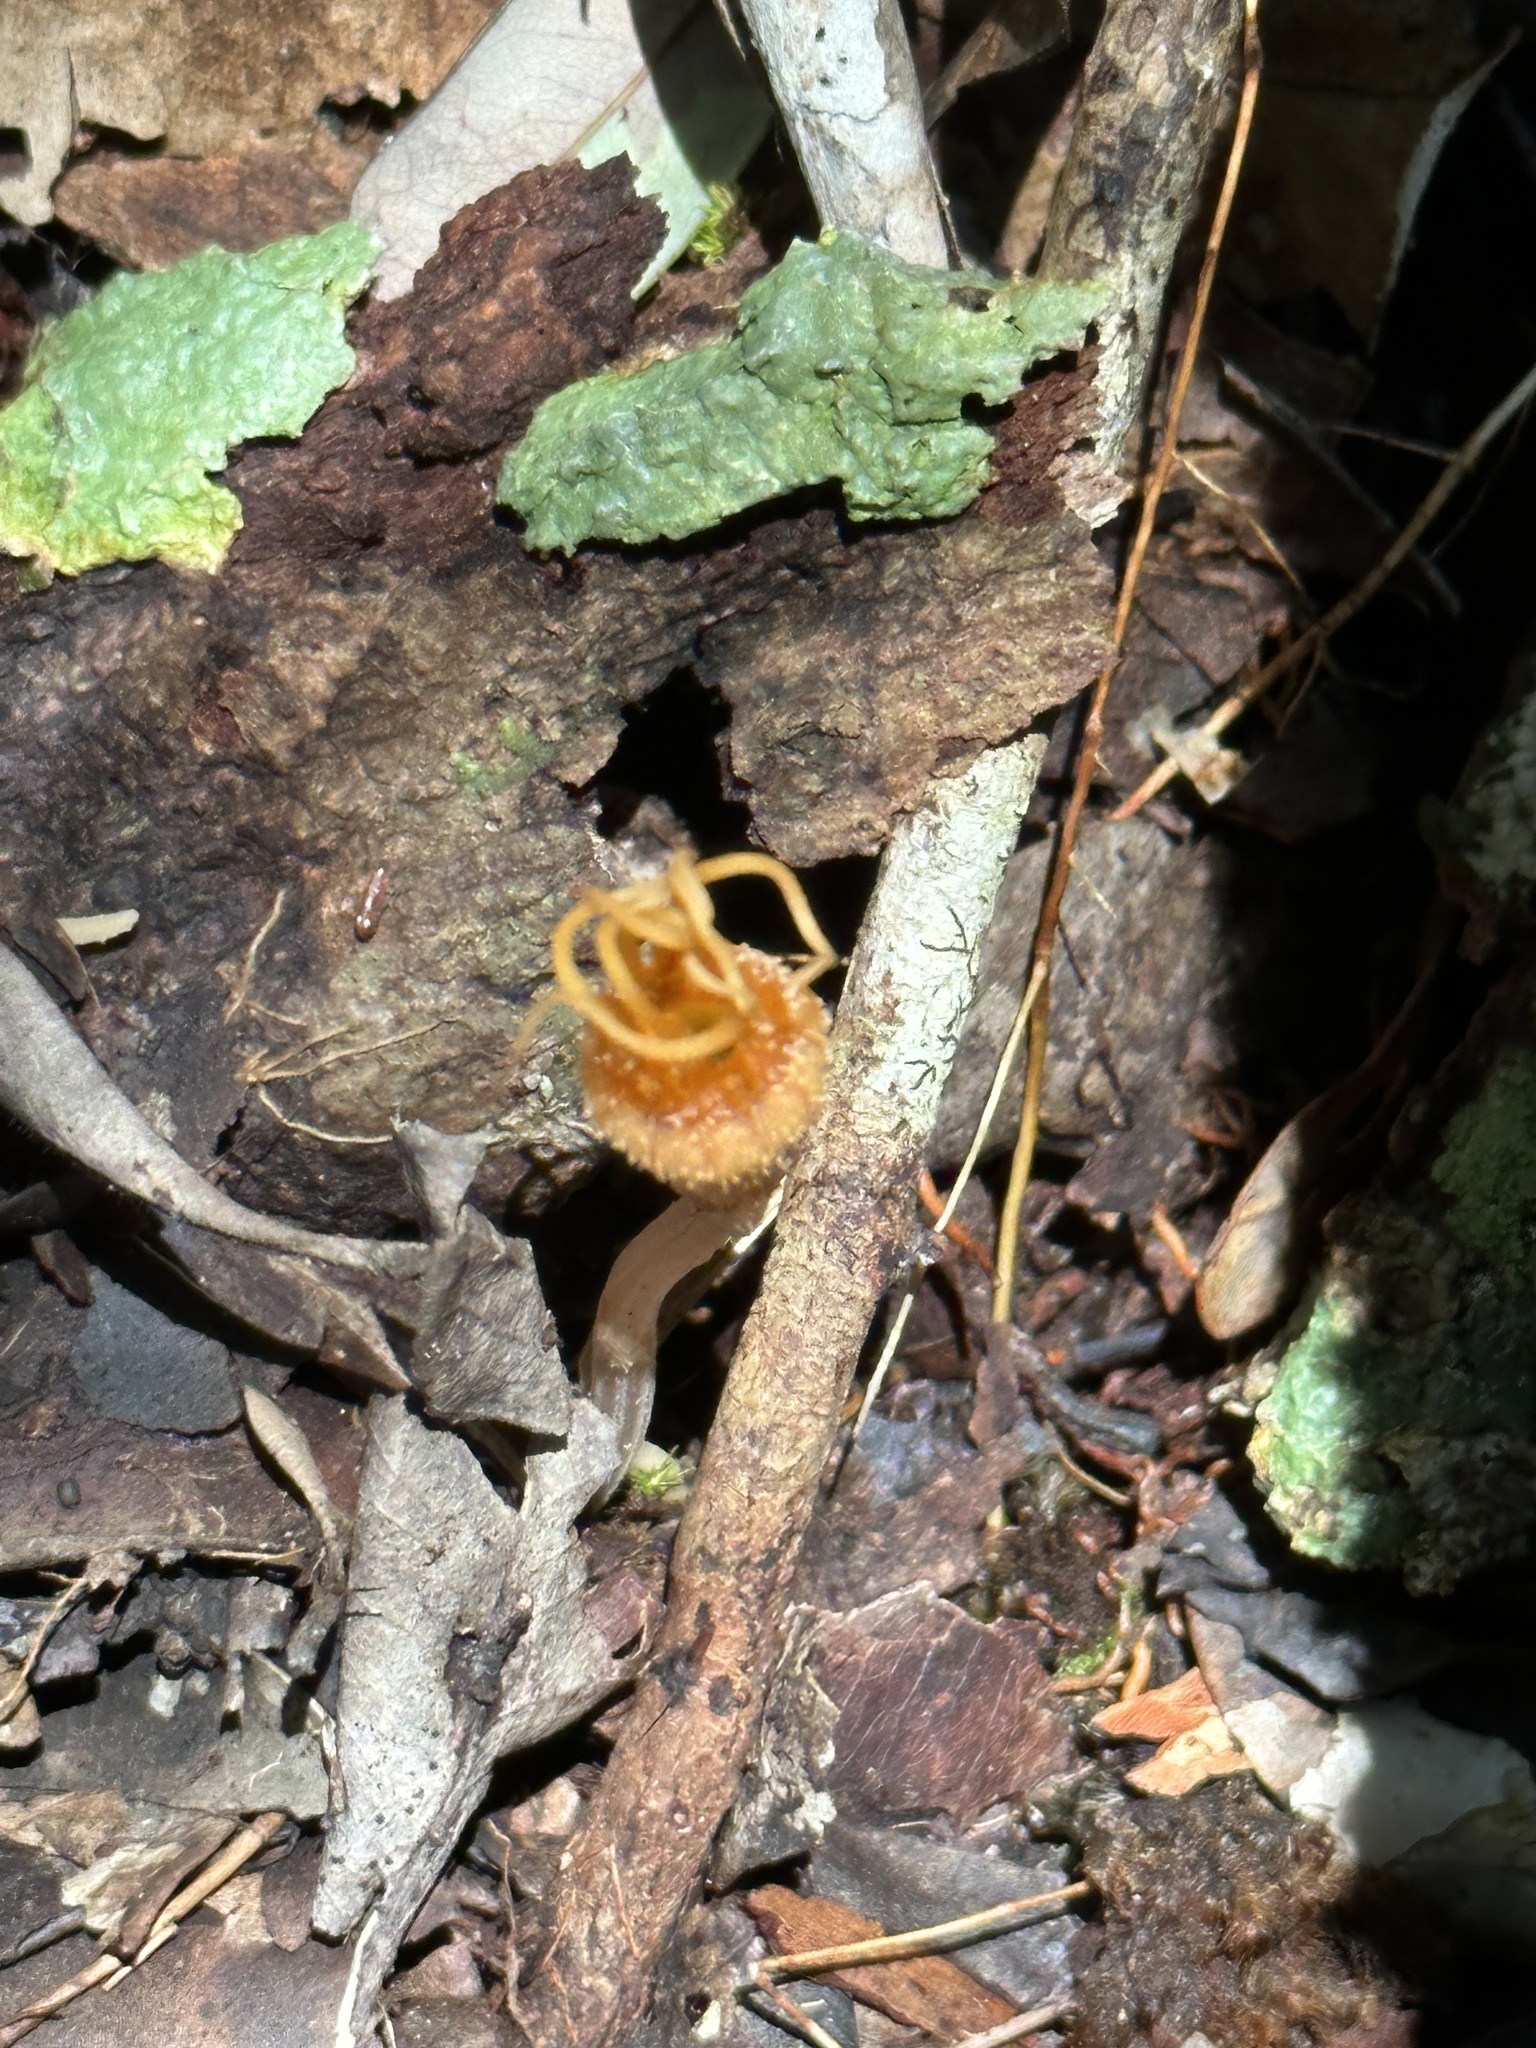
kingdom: Plantae
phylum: Tracheophyta
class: Liliopsida
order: Dioscoreales
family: Burmanniaceae
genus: Thismia
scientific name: Thismia ornata
